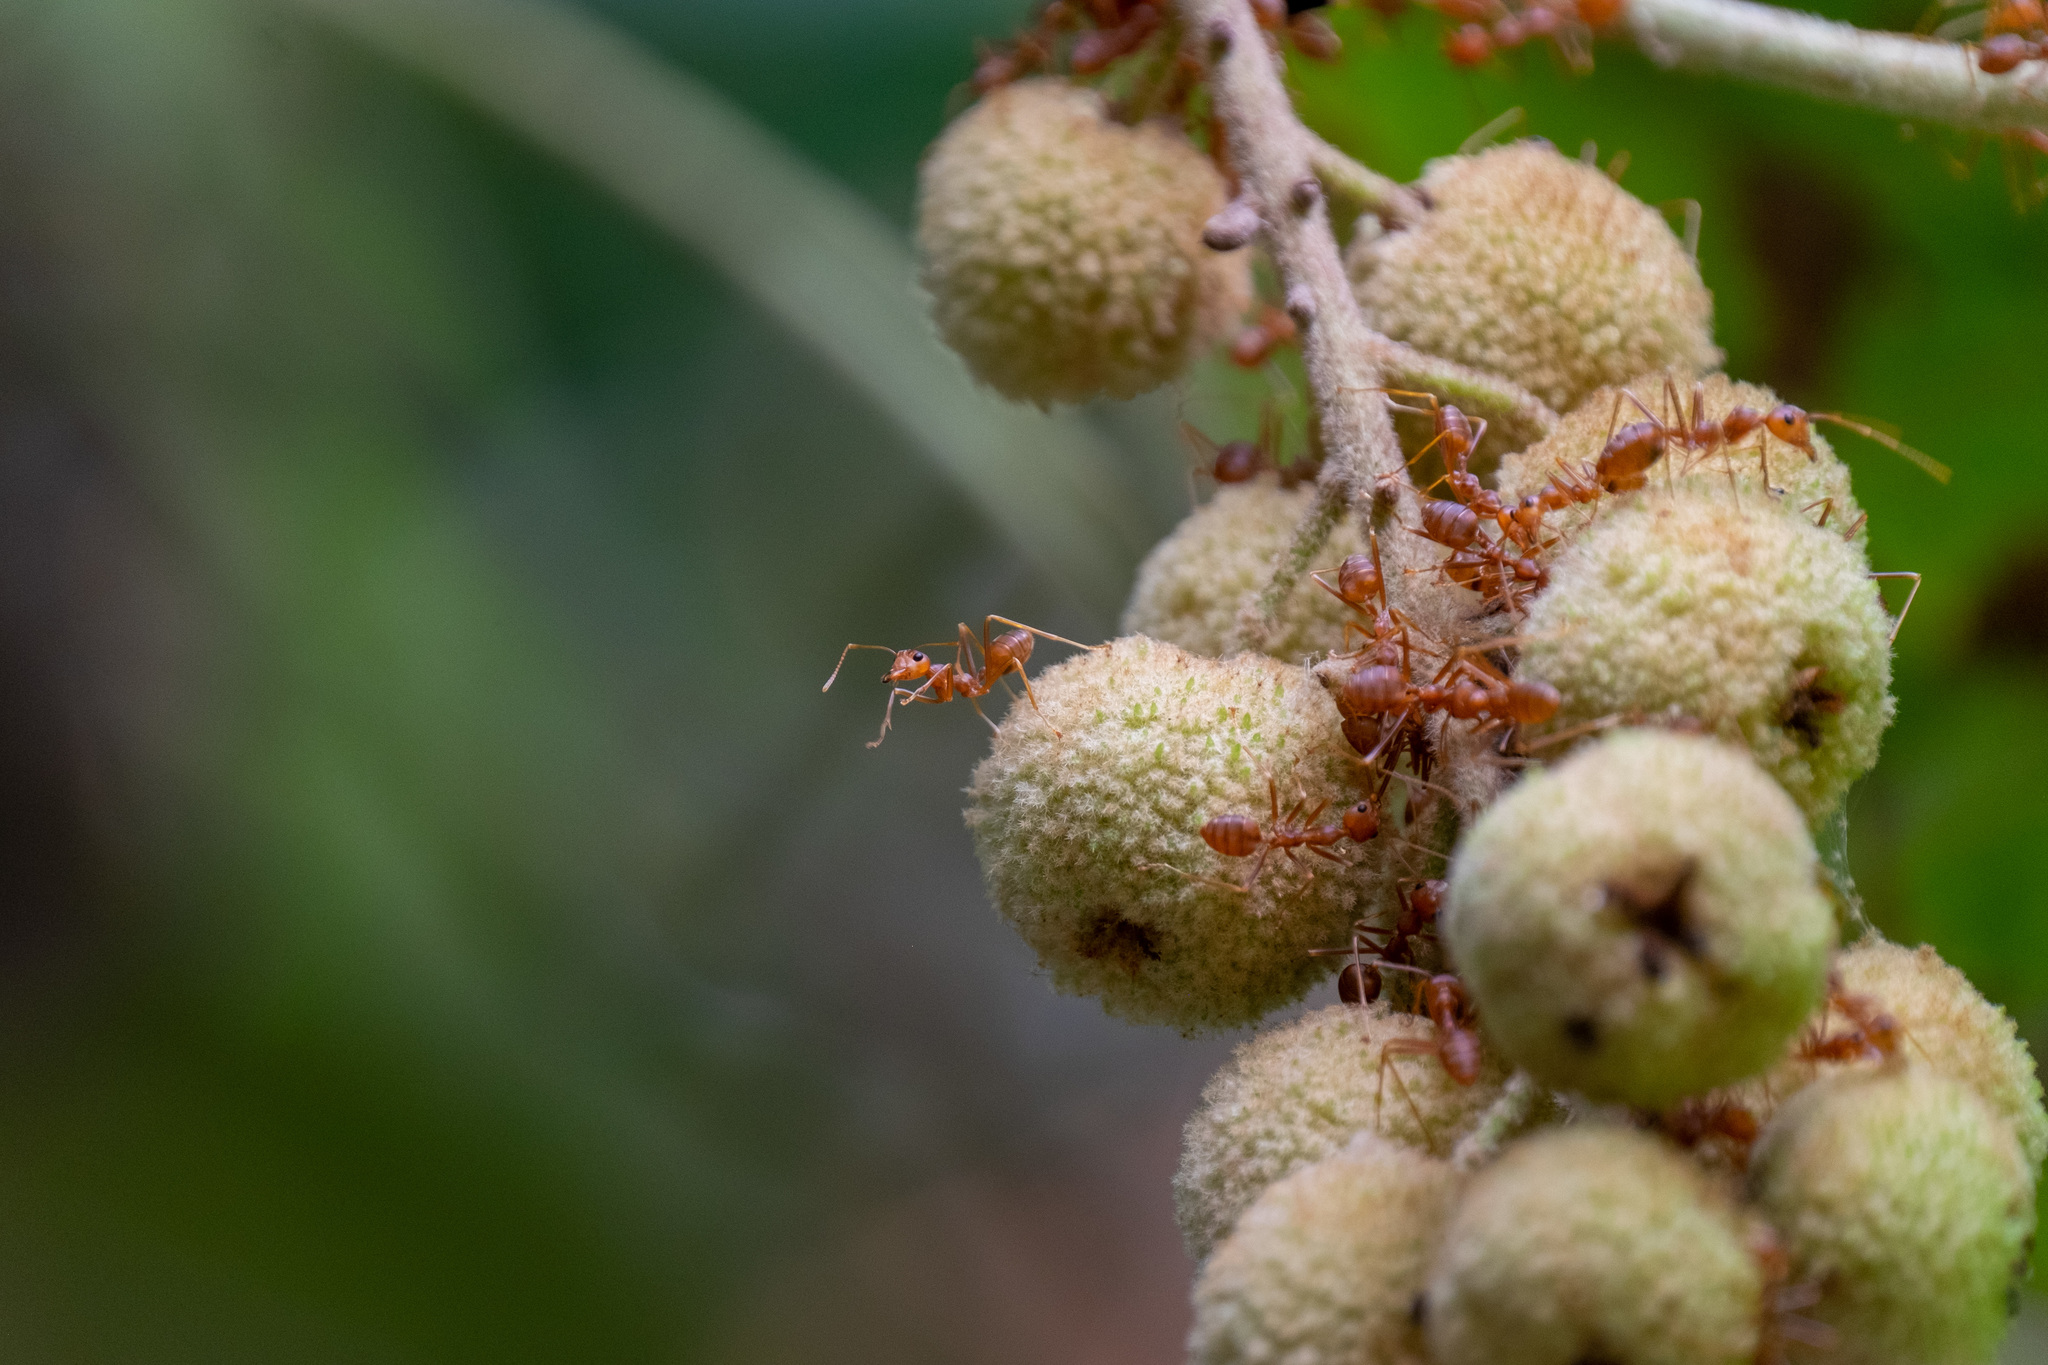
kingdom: Animalia
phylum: Arthropoda
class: Insecta
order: Hymenoptera
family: Formicidae
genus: Oecophylla
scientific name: Oecophylla smaragdina
